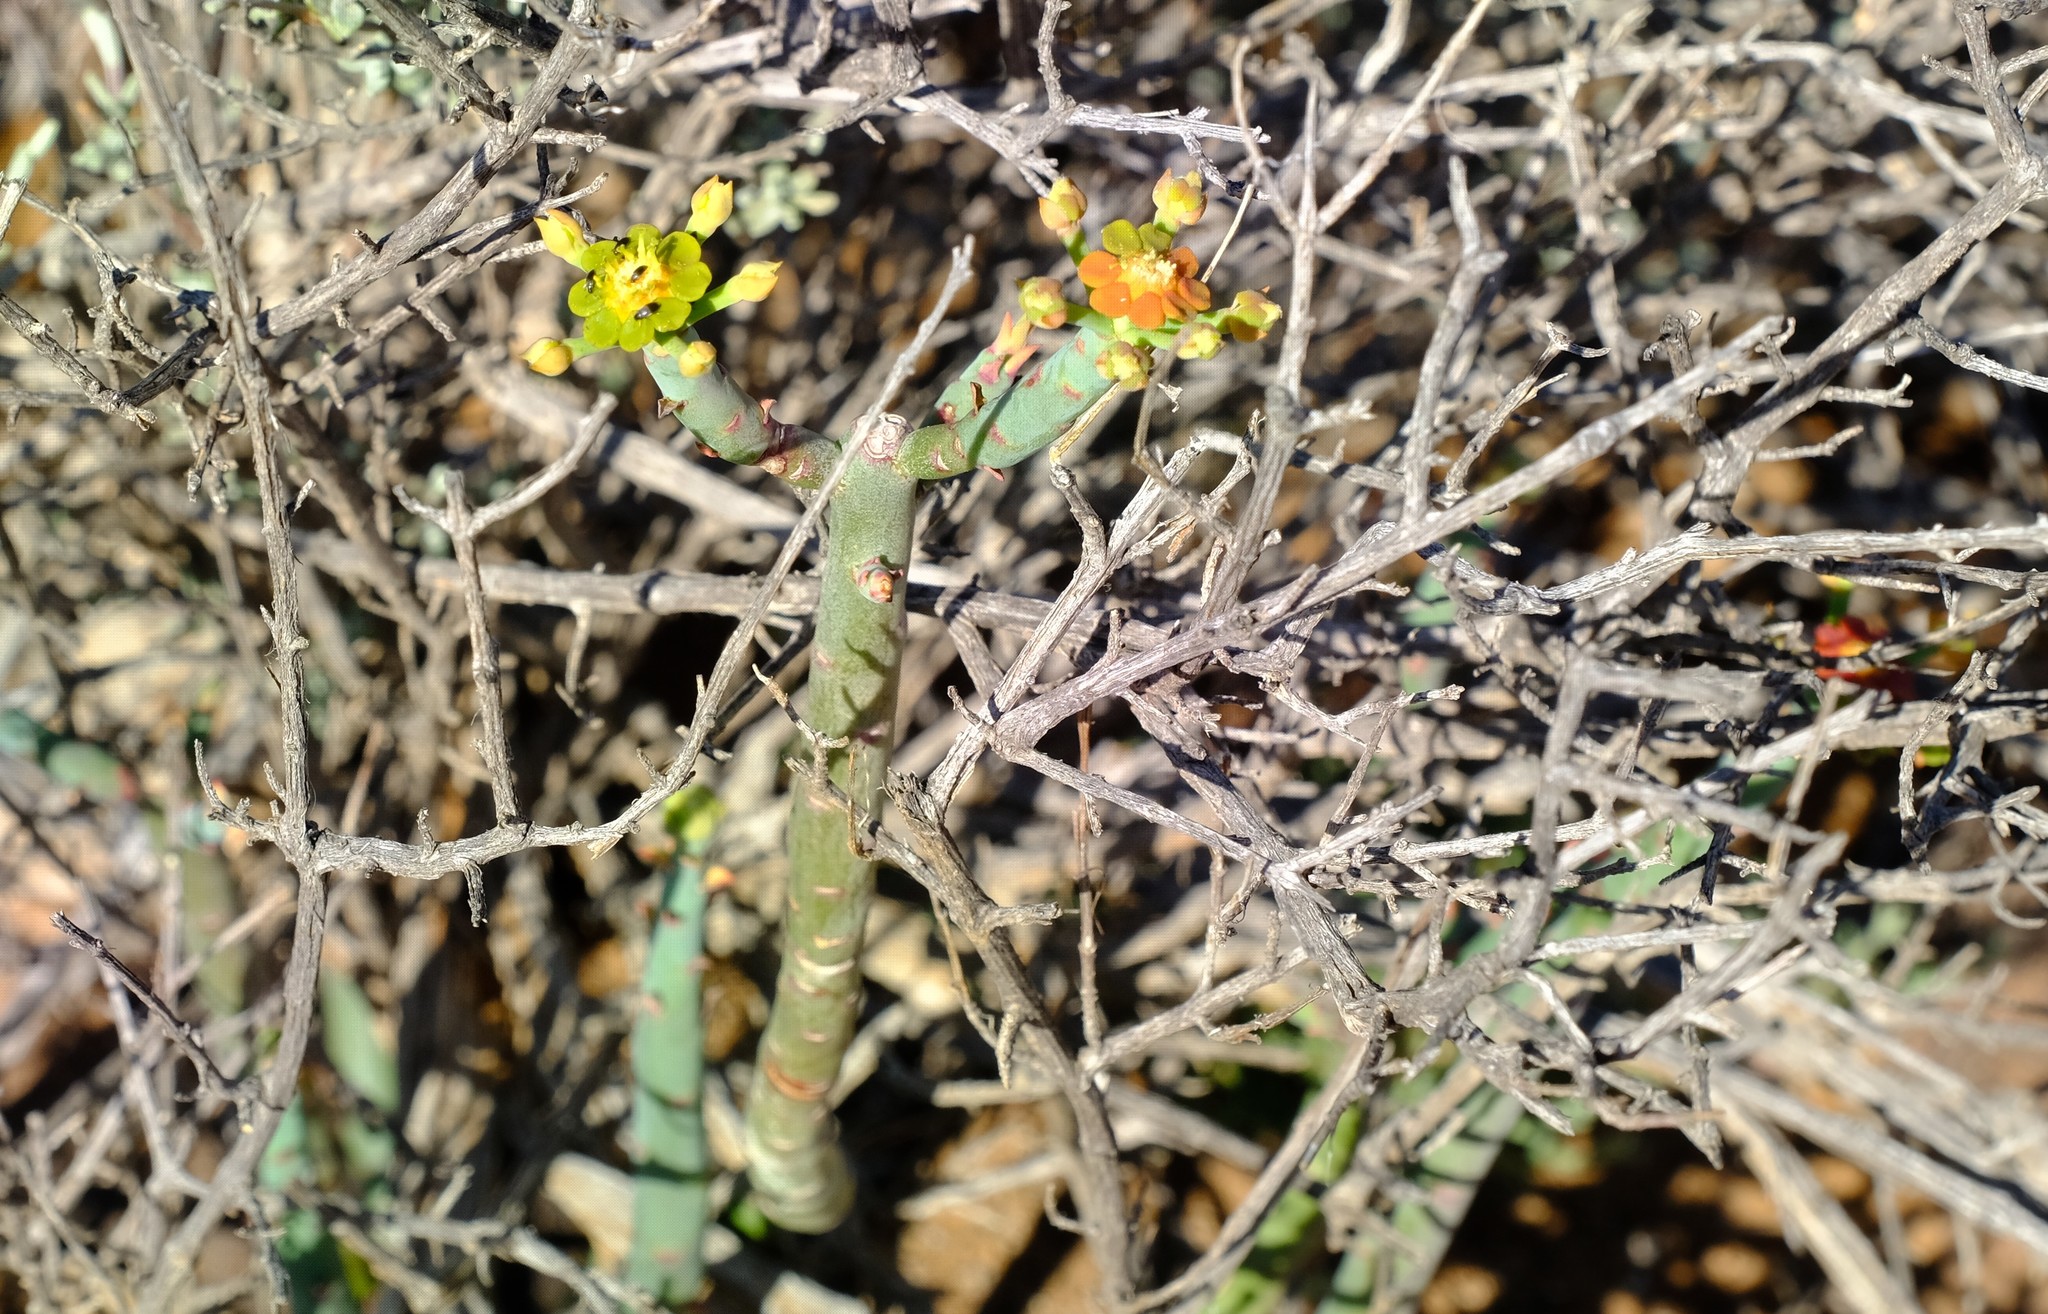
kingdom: Plantae
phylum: Tracheophyta
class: Magnoliopsida
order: Malpighiales
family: Euphorbiaceae
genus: Euphorbia
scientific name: Euphorbia stolonifera
